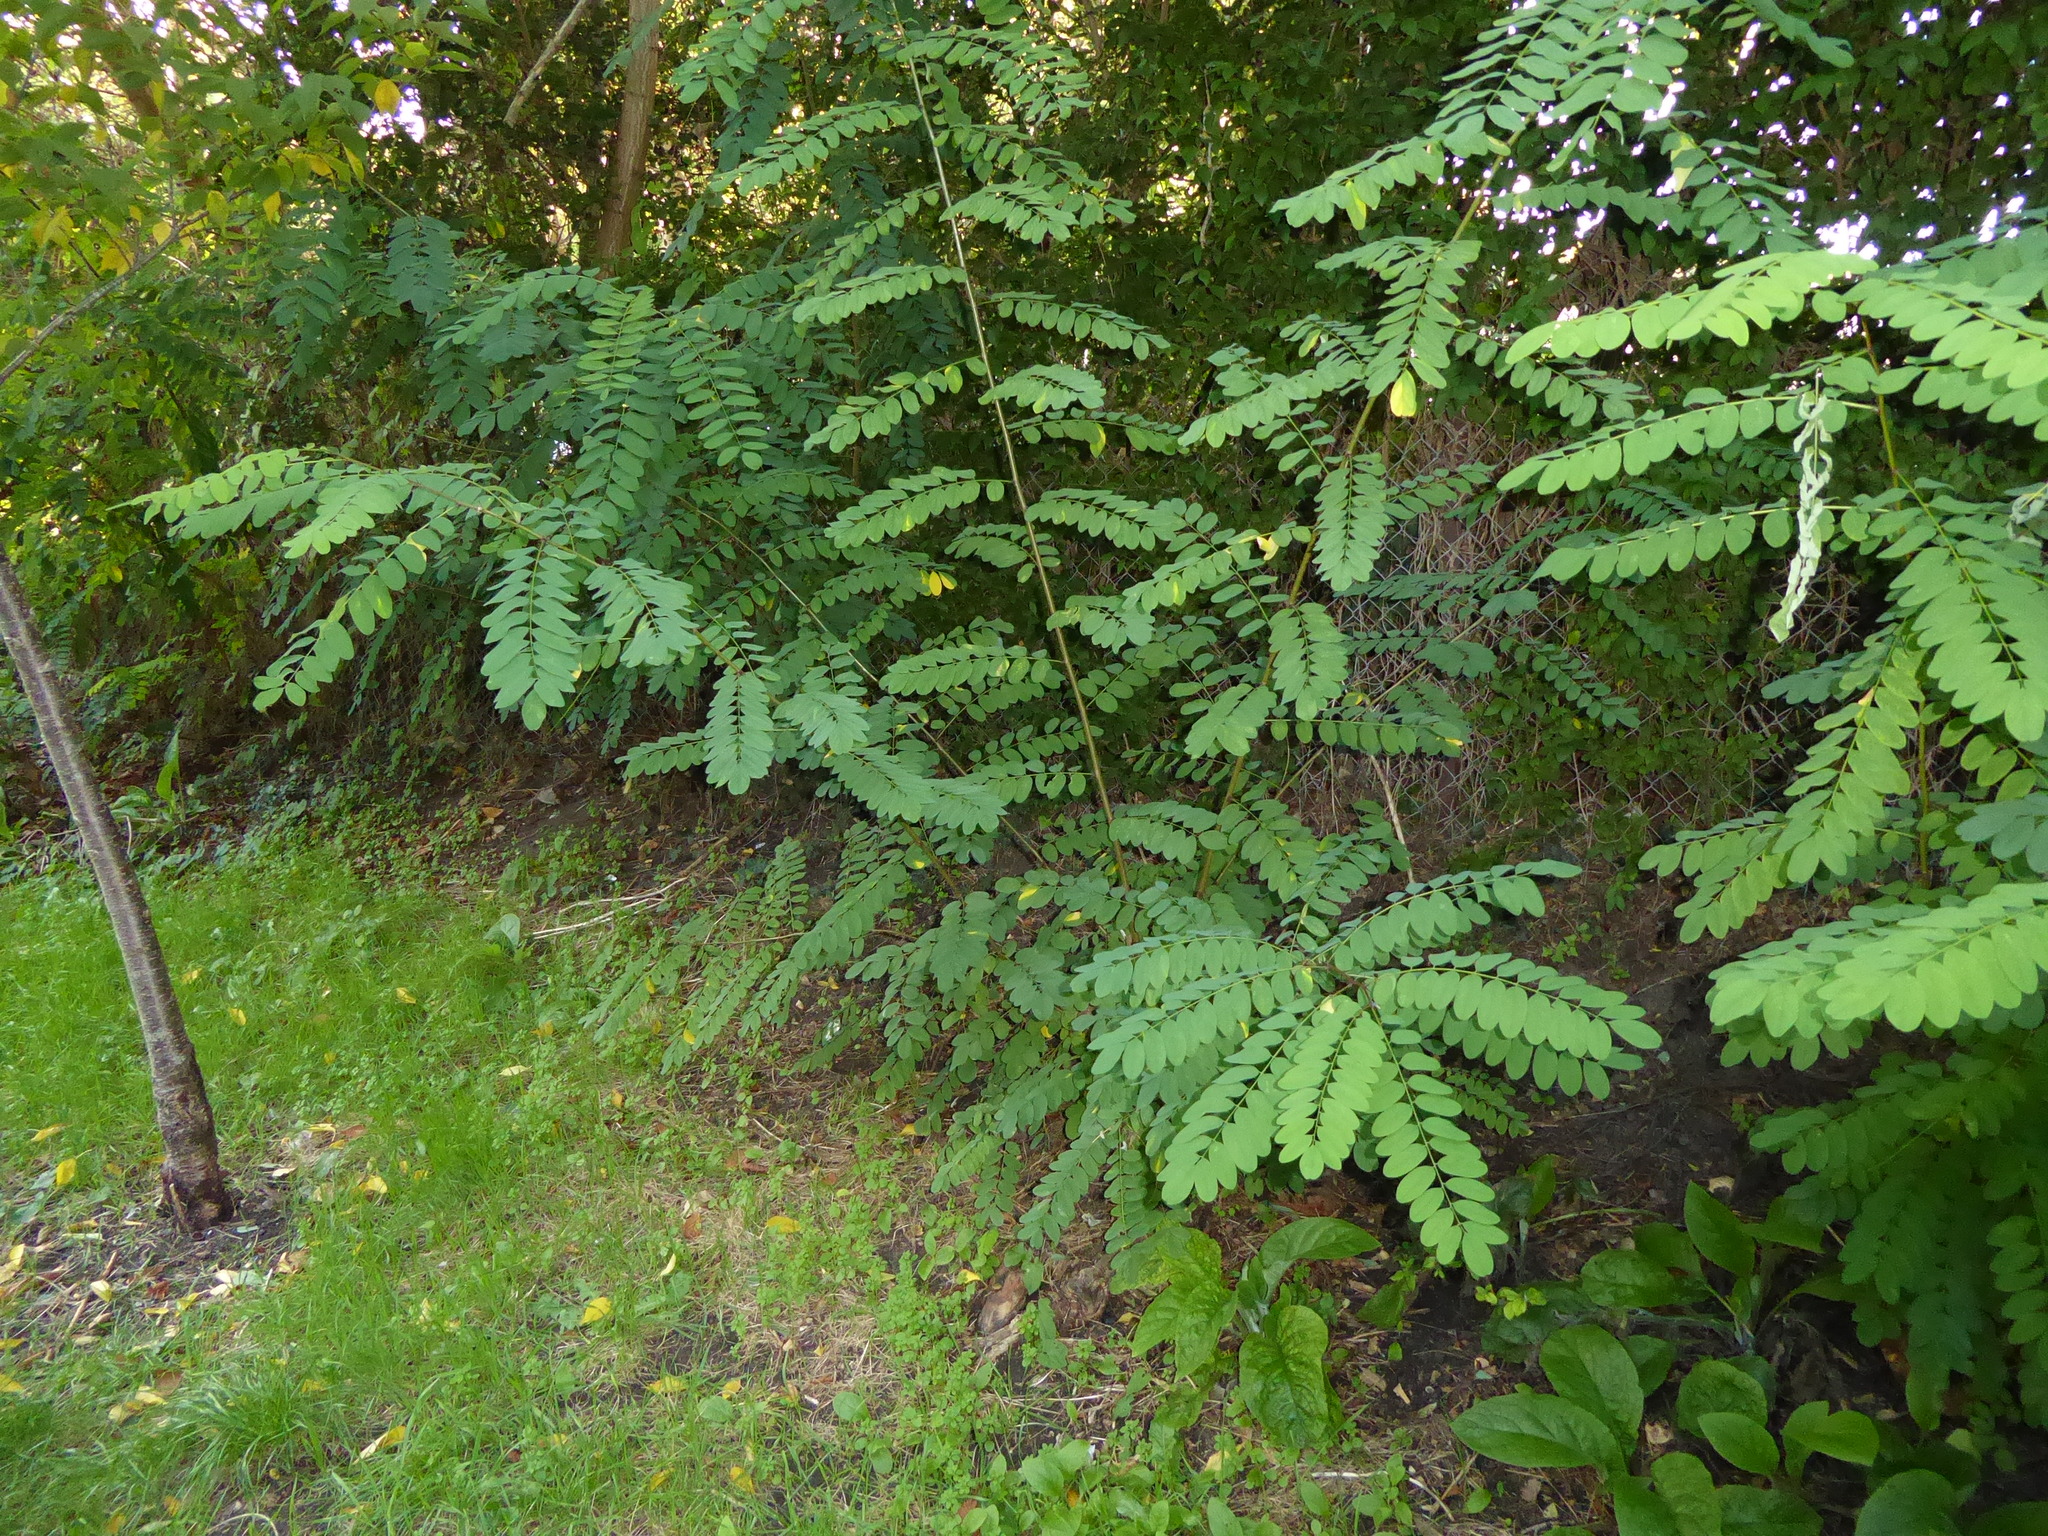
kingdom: Plantae
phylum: Tracheophyta
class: Magnoliopsida
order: Fabales
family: Fabaceae
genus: Robinia
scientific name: Robinia pseudoacacia
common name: Black locust
